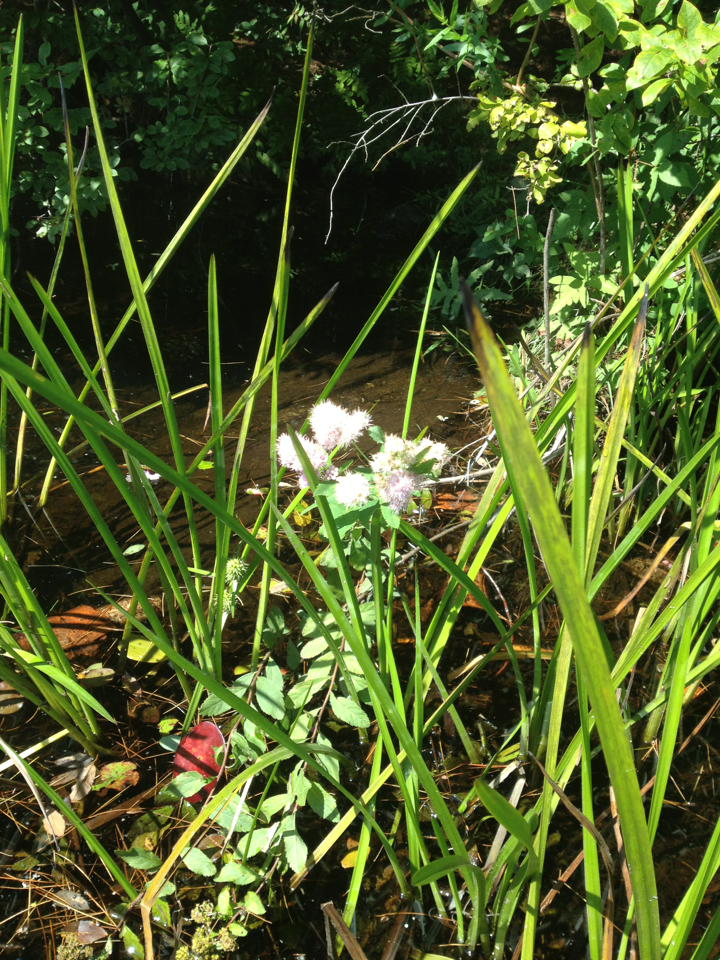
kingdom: Plantae
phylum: Tracheophyta
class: Magnoliopsida
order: Rosales
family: Rosaceae
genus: Spiraea
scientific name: Spiraea alba
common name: Pale bridewort
